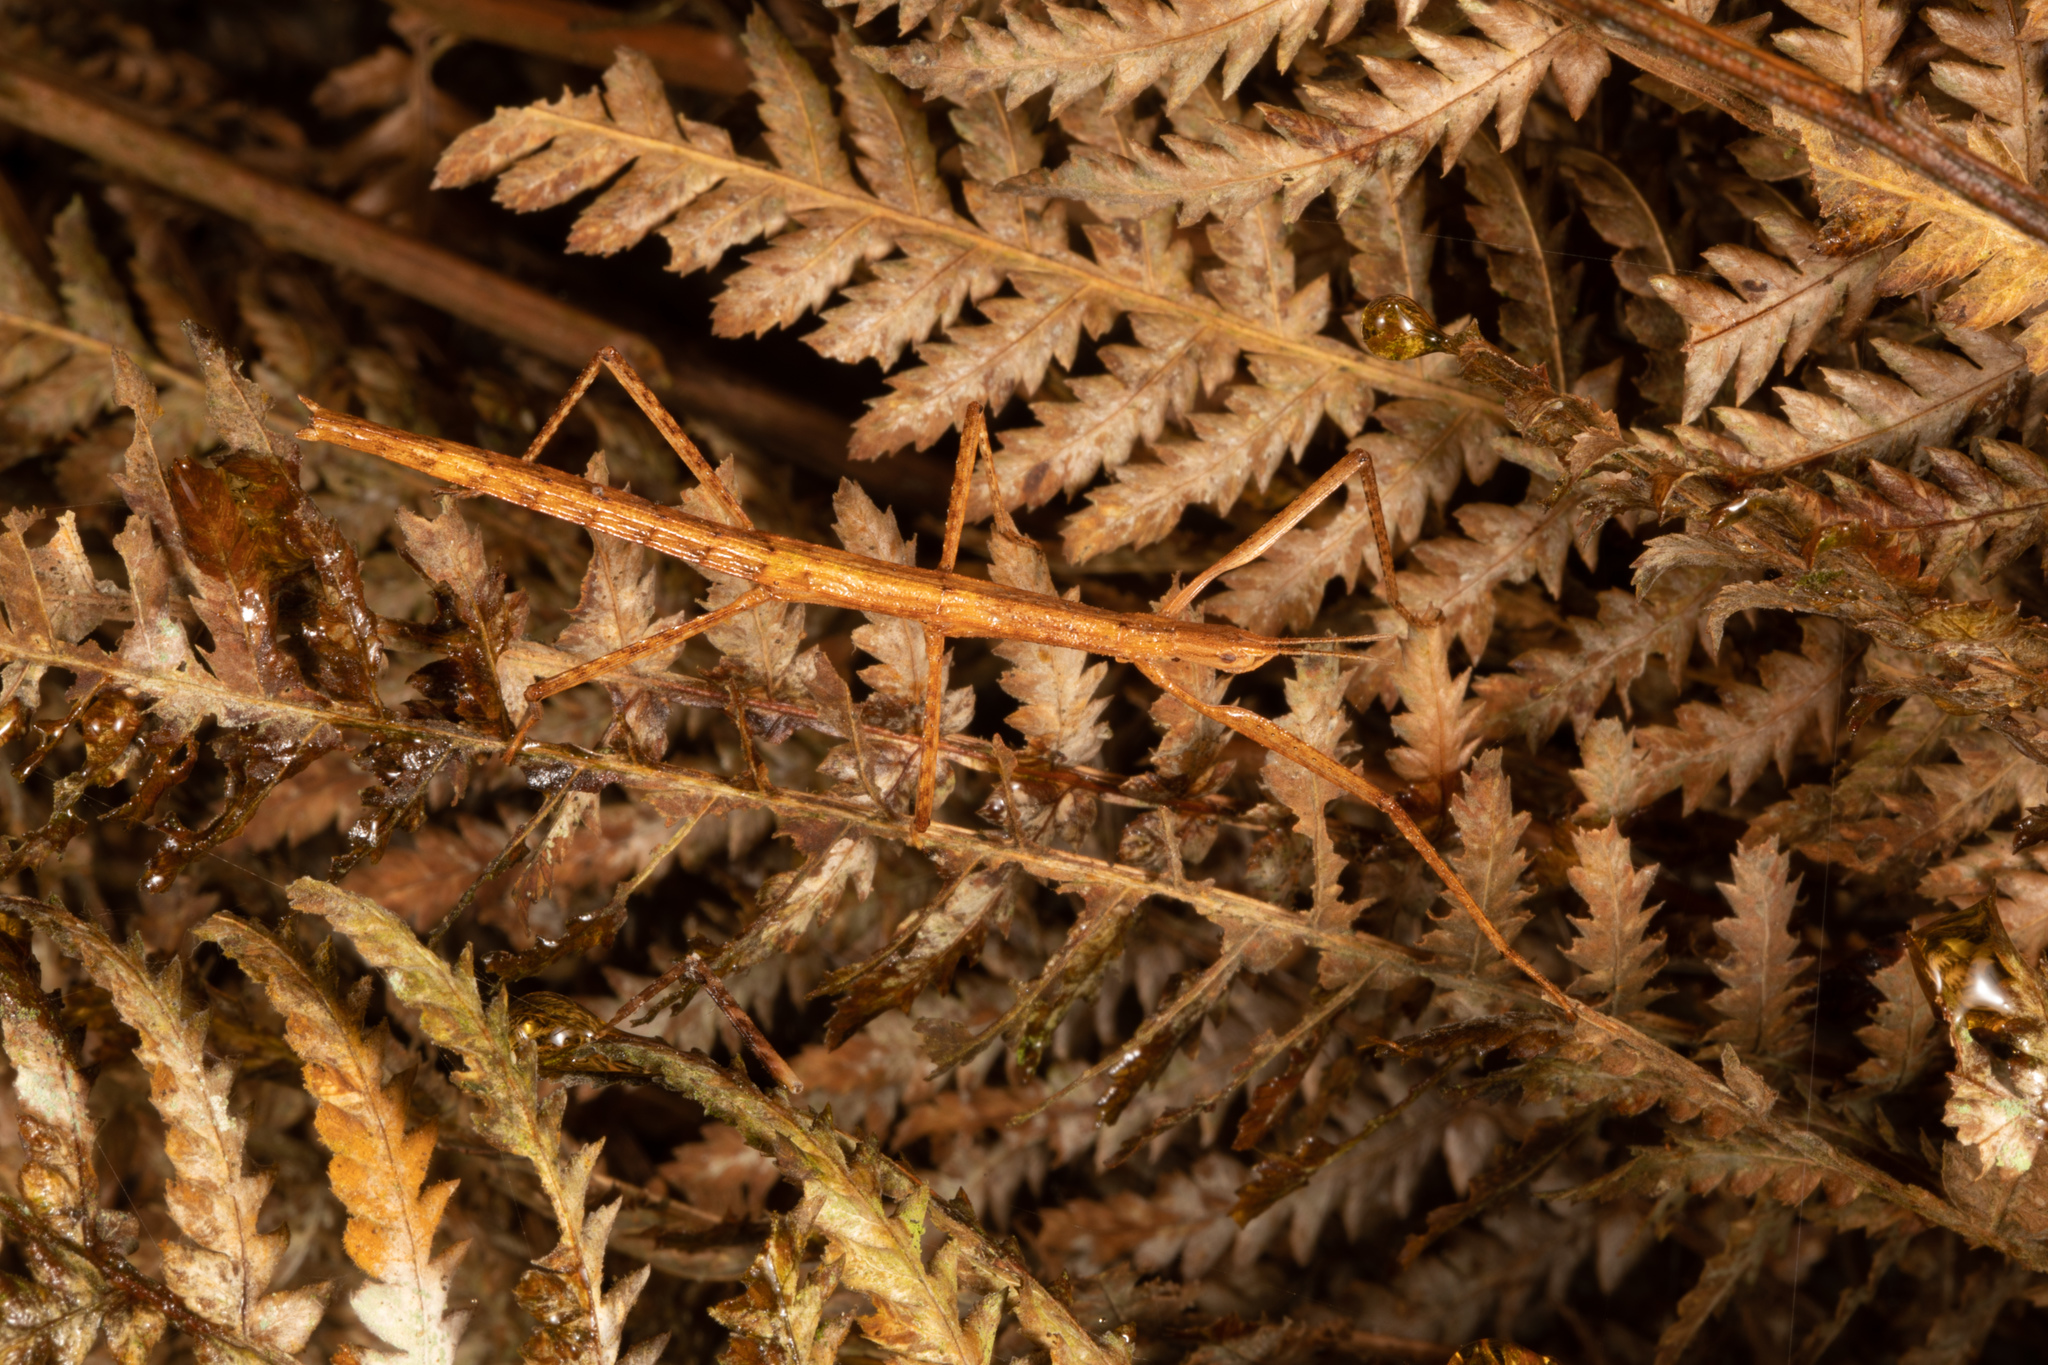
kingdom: Animalia
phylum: Arthropoda
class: Insecta
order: Phasmida
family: Phasmatidae
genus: Tectarchus
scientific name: Tectarchus ovobessus
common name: The rough-skinned ridge-backed stick insect
